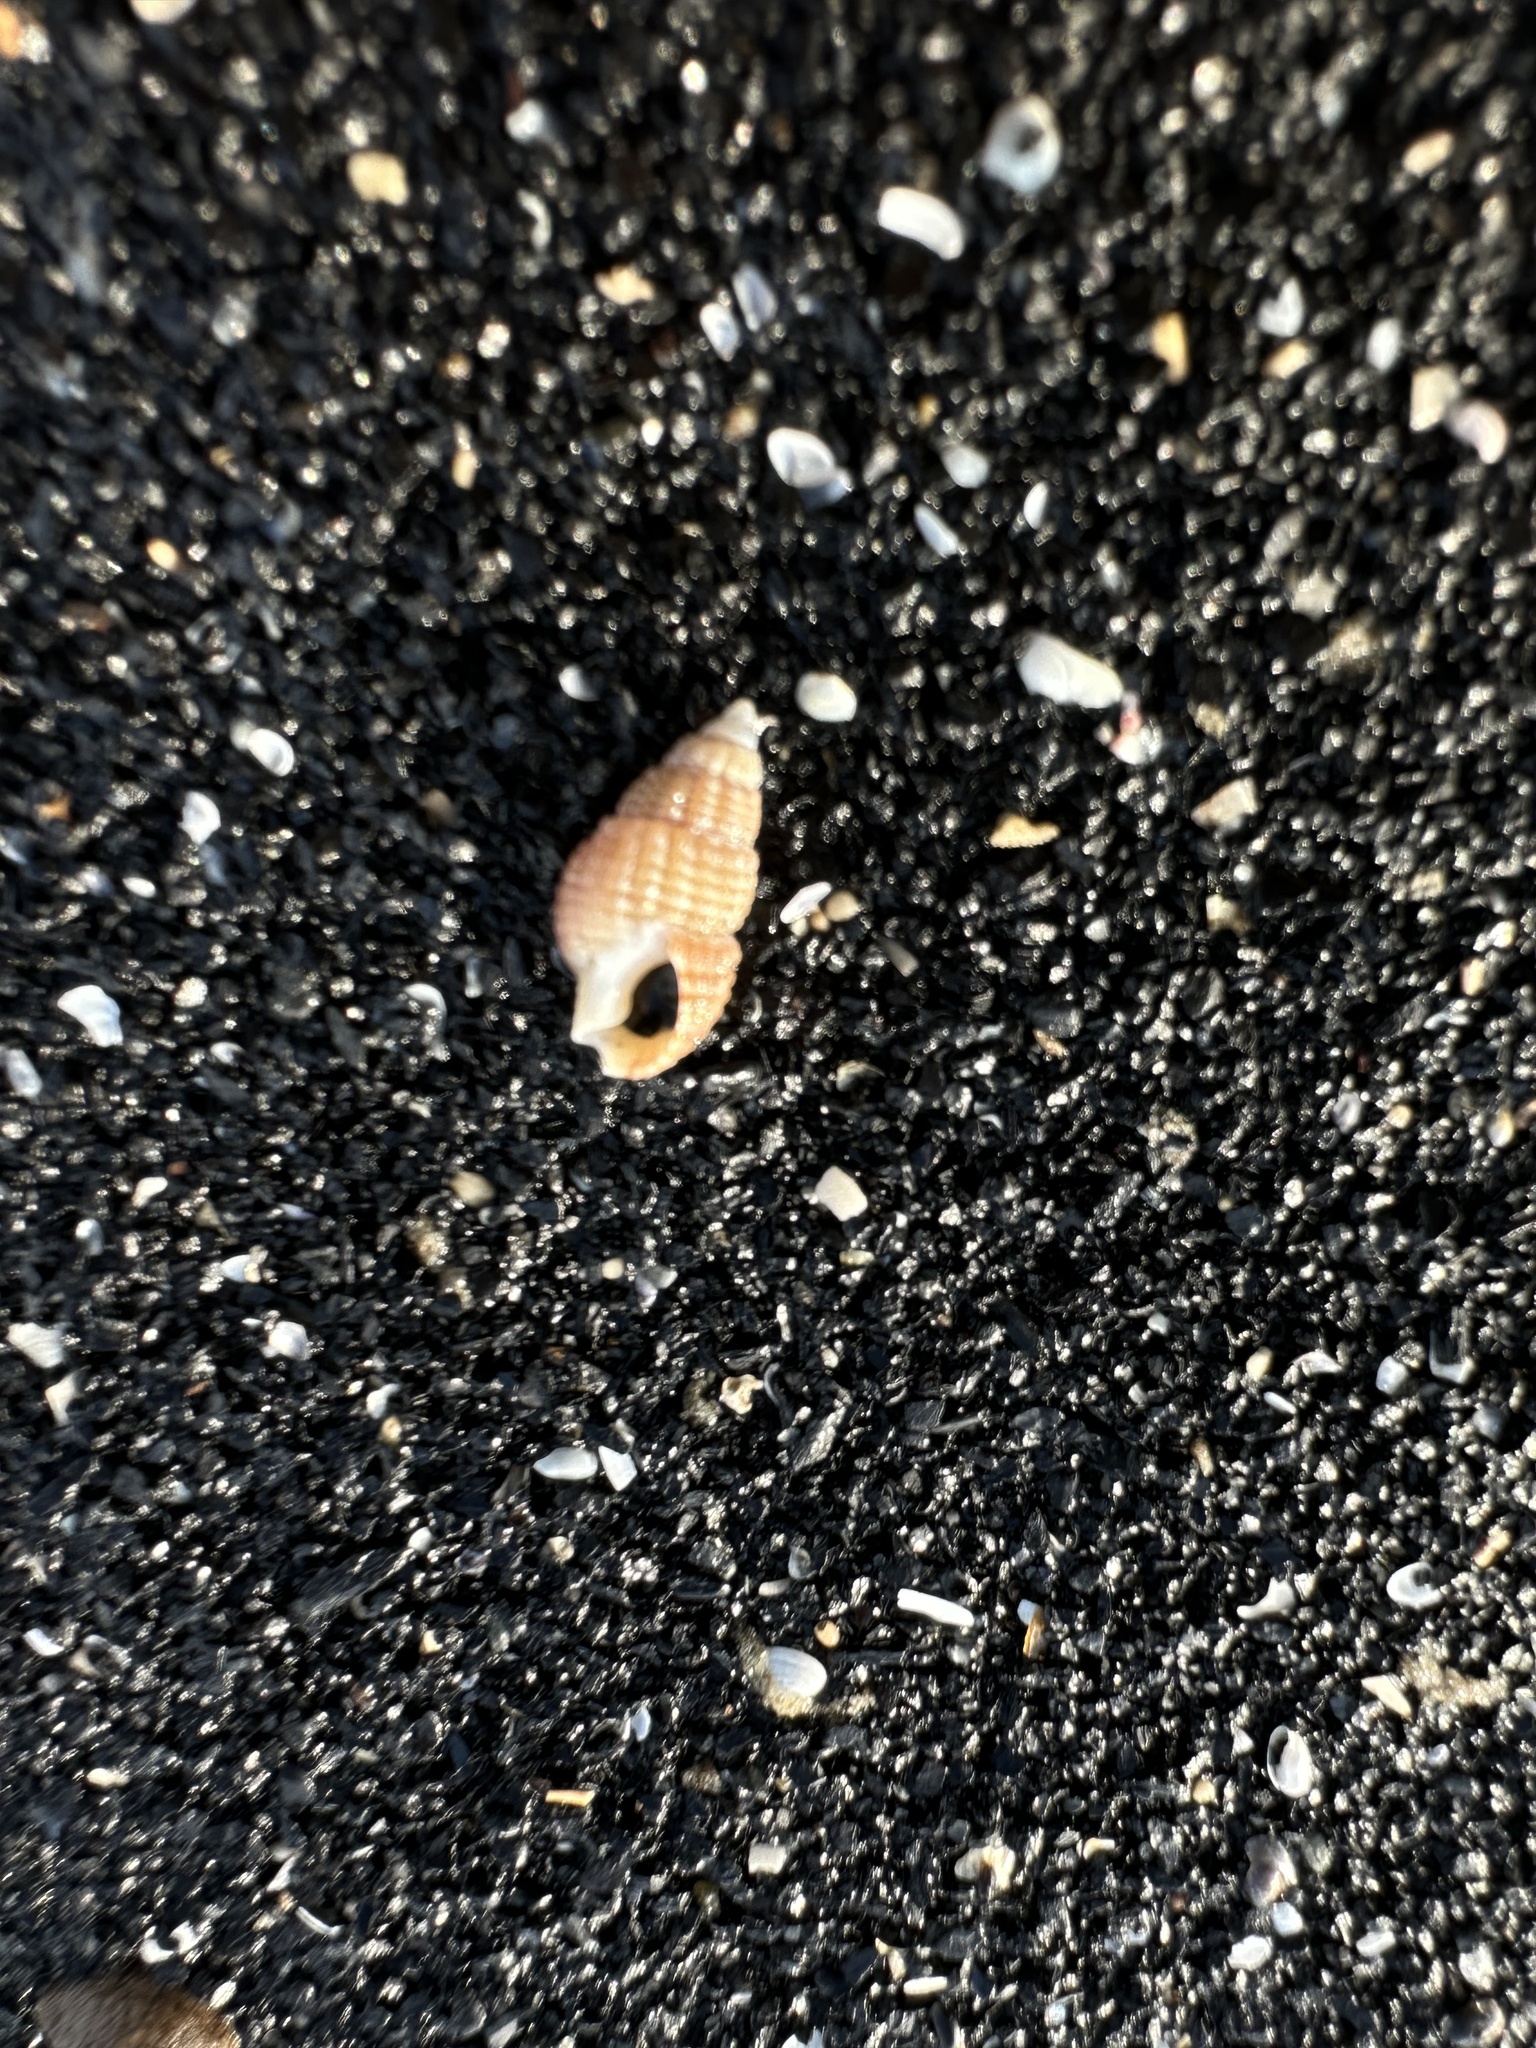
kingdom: Animalia
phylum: Mollusca
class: Gastropoda
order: Neogastropoda
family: Nassariidae
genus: Ilyanassa
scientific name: Ilyanassa trivittata
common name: Three-line mudsnail
